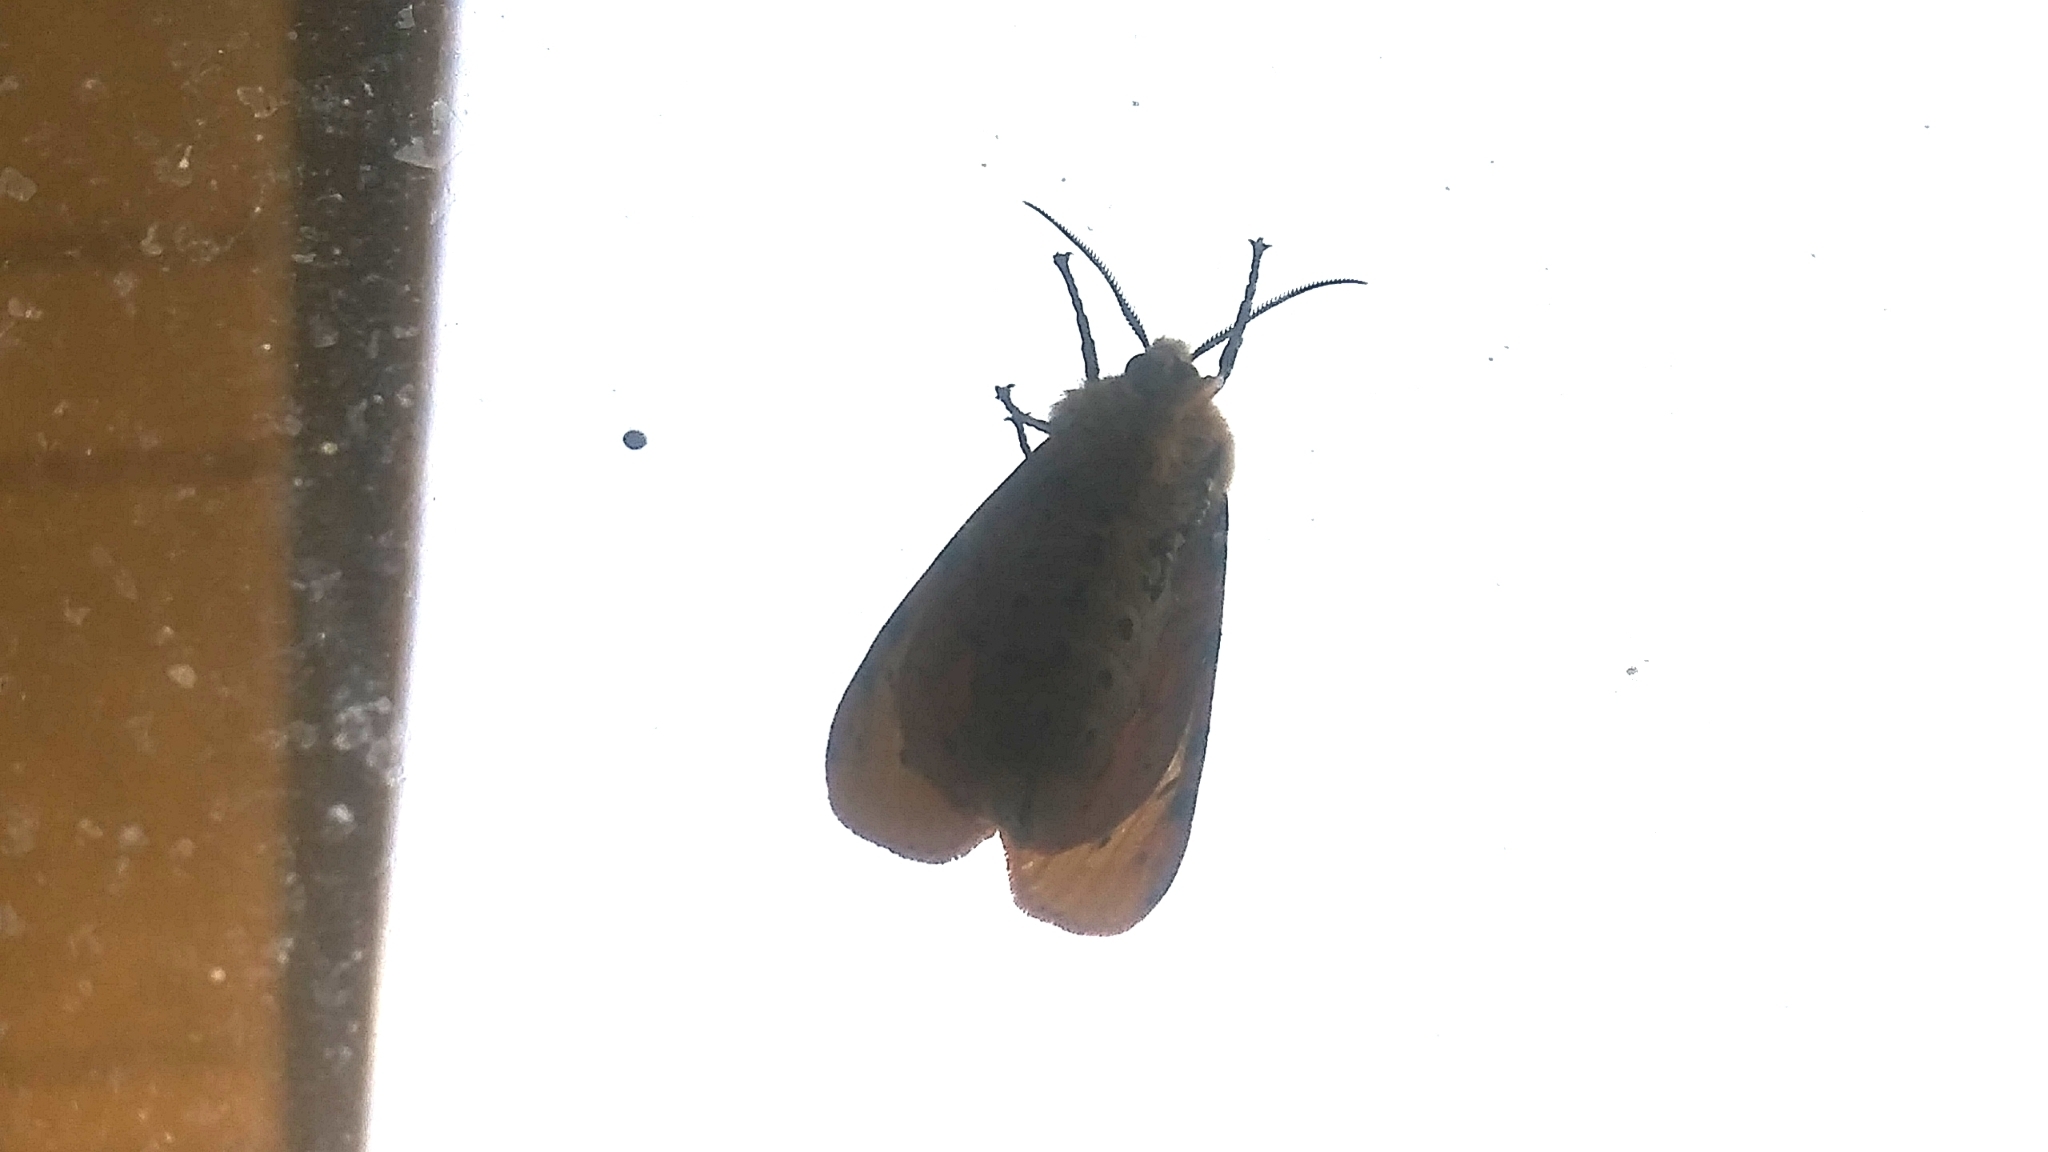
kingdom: Animalia
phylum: Arthropoda
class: Insecta
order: Lepidoptera
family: Erebidae
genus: Estigmene
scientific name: Estigmene acrea
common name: Salt marsh moth
